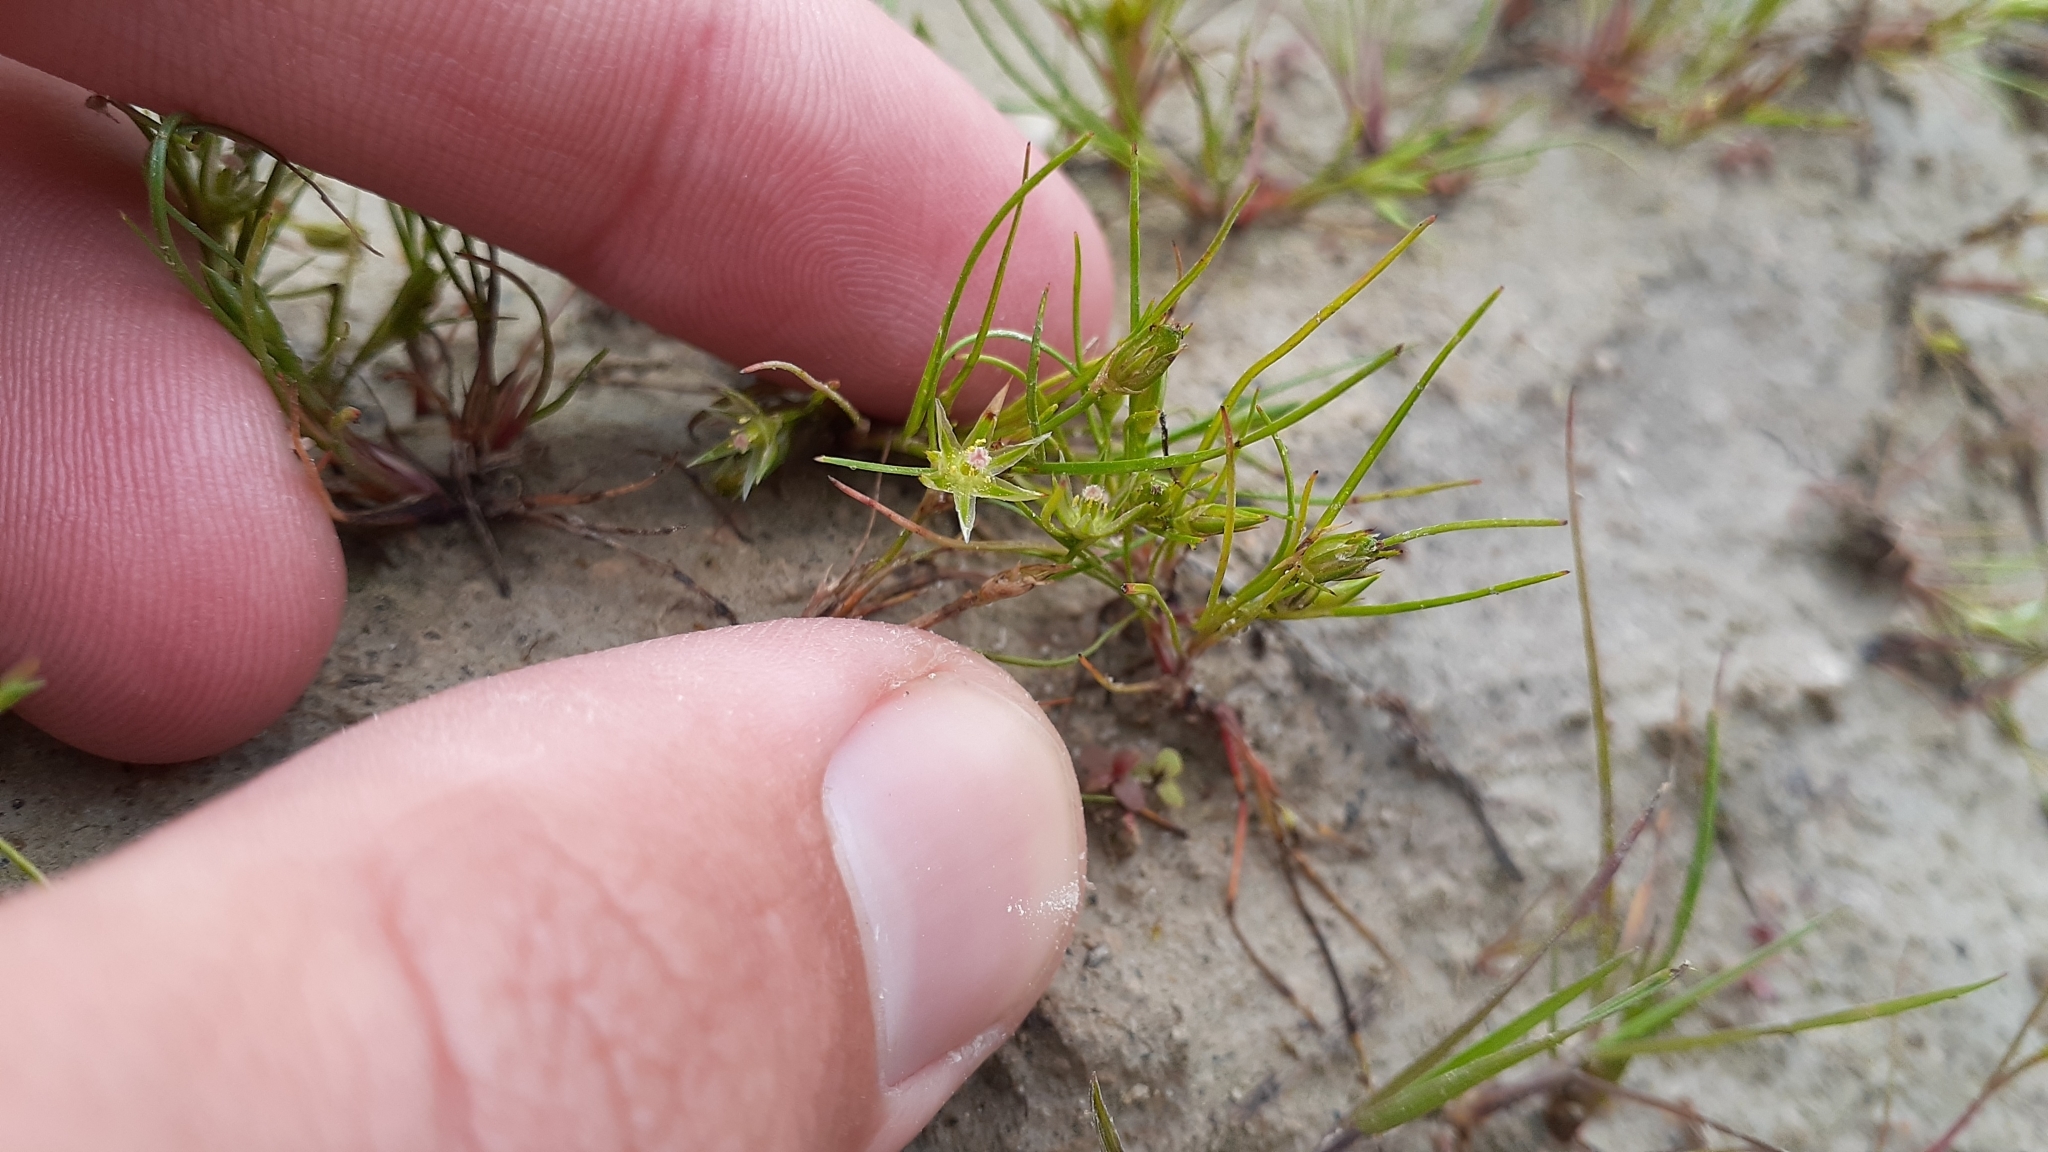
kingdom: Plantae
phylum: Tracheophyta
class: Liliopsida
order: Poales
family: Juncaceae
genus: Juncus
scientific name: Juncus bufonius
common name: Toad rush
